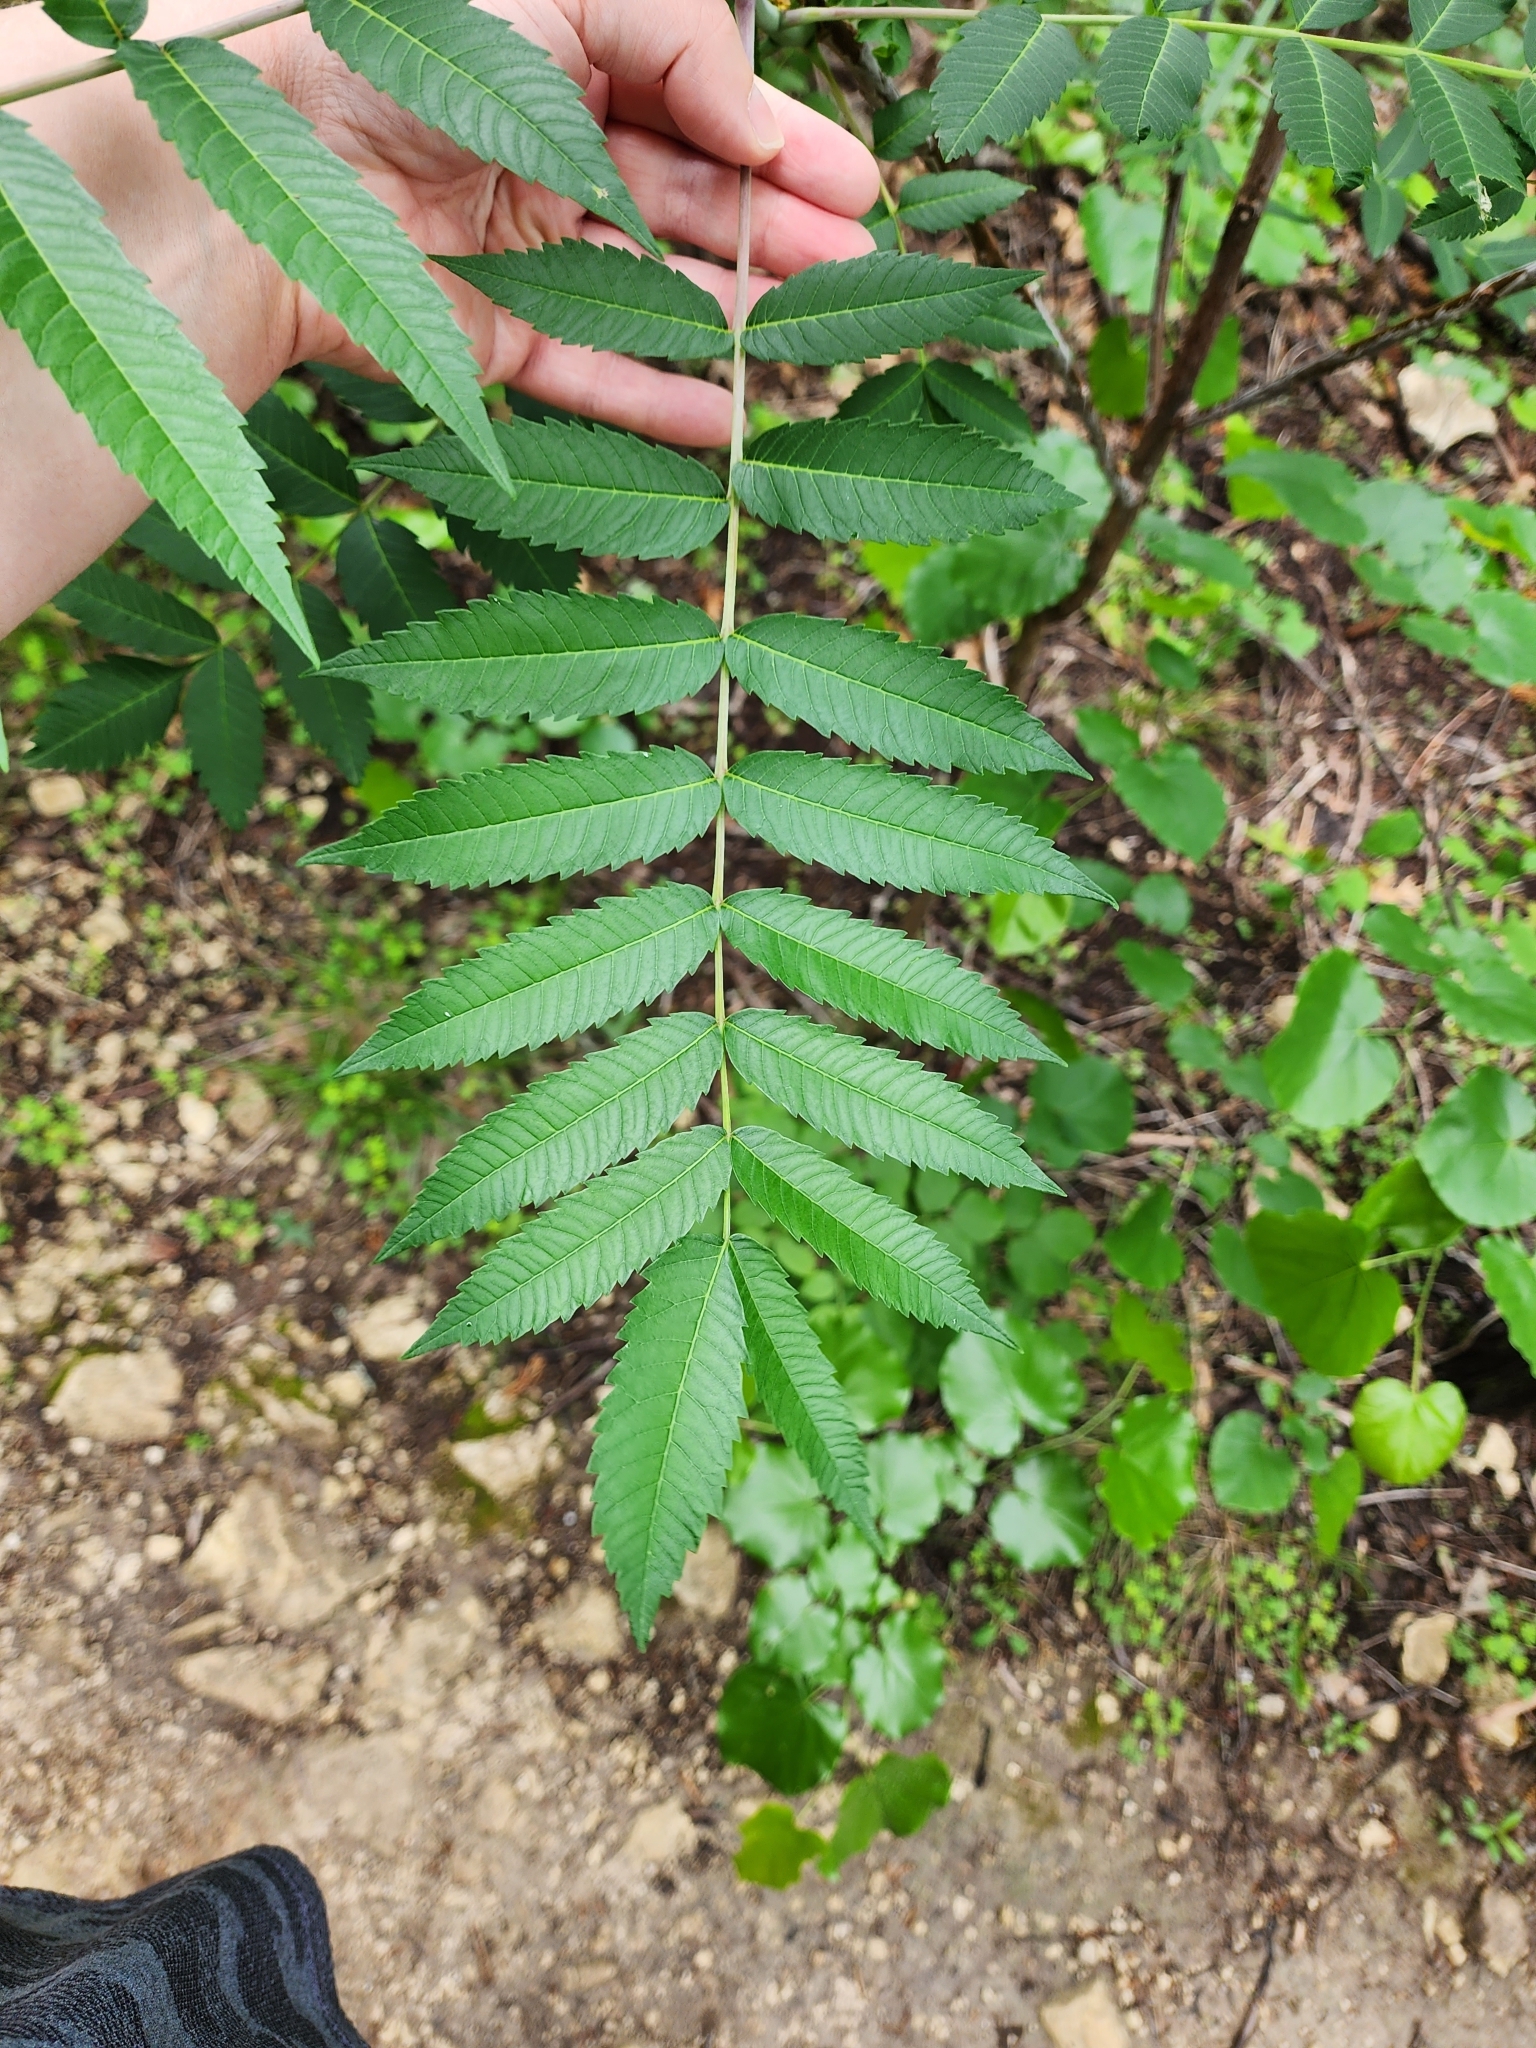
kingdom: Plantae
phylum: Tracheophyta
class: Magnoliopsida
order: Sapindales
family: Anacardiaceae
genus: Rhus
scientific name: Rhus glabra
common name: Scarlet sumac
